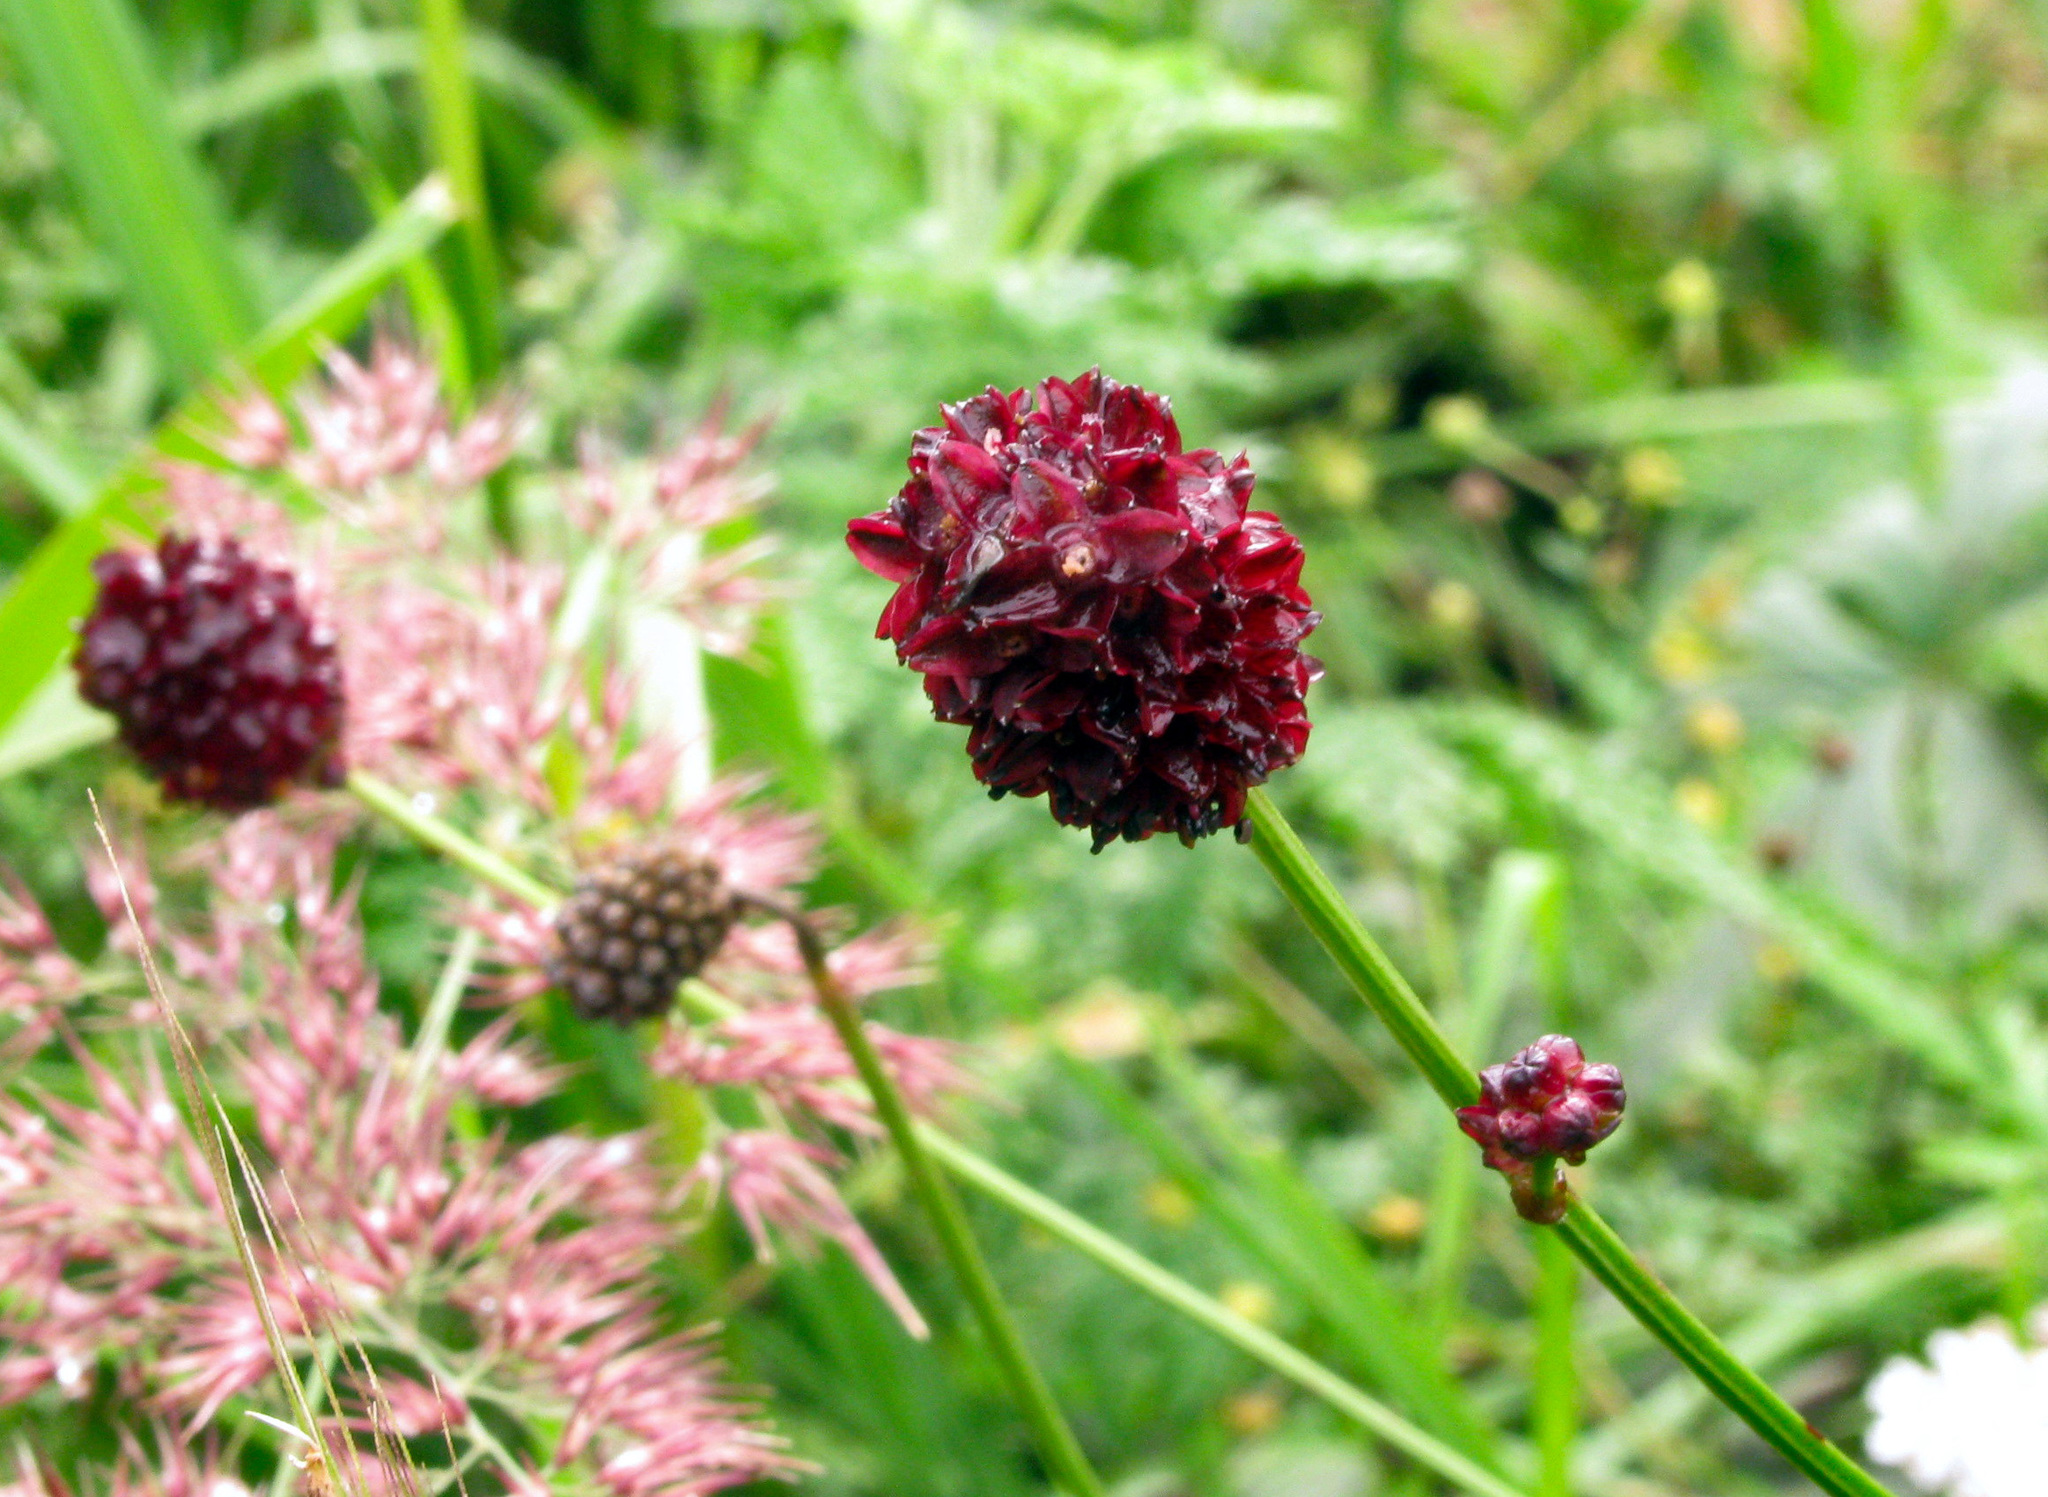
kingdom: Plantae
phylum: Tracheophyta
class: Magnoliopsida
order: Rosales
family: Rosaceae
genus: Sanguisorba
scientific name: Sanguisorba officinalis
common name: Great burnet
